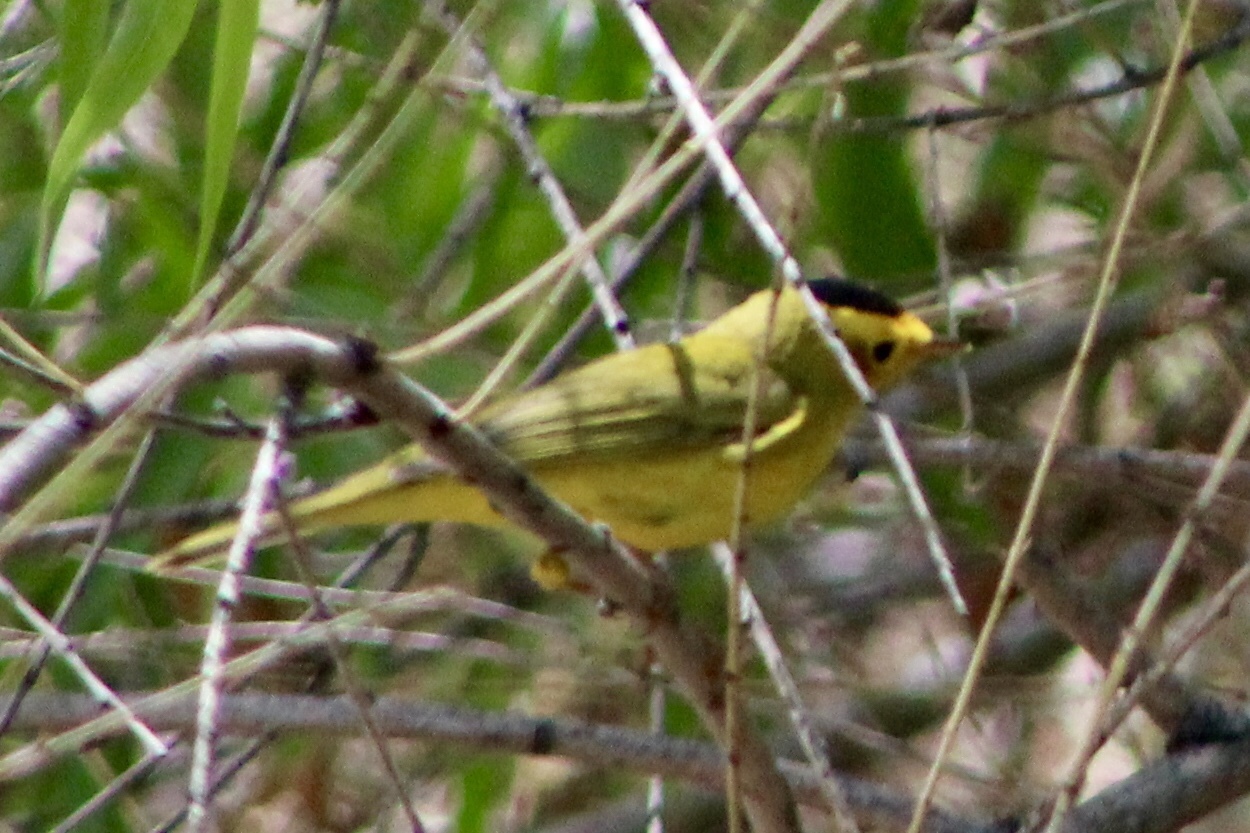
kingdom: Animalia
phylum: Chordata
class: Aves
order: Passeriformes
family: Parulidae
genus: Cardellina
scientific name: Cardellina pusilla
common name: Wilson's warbler
